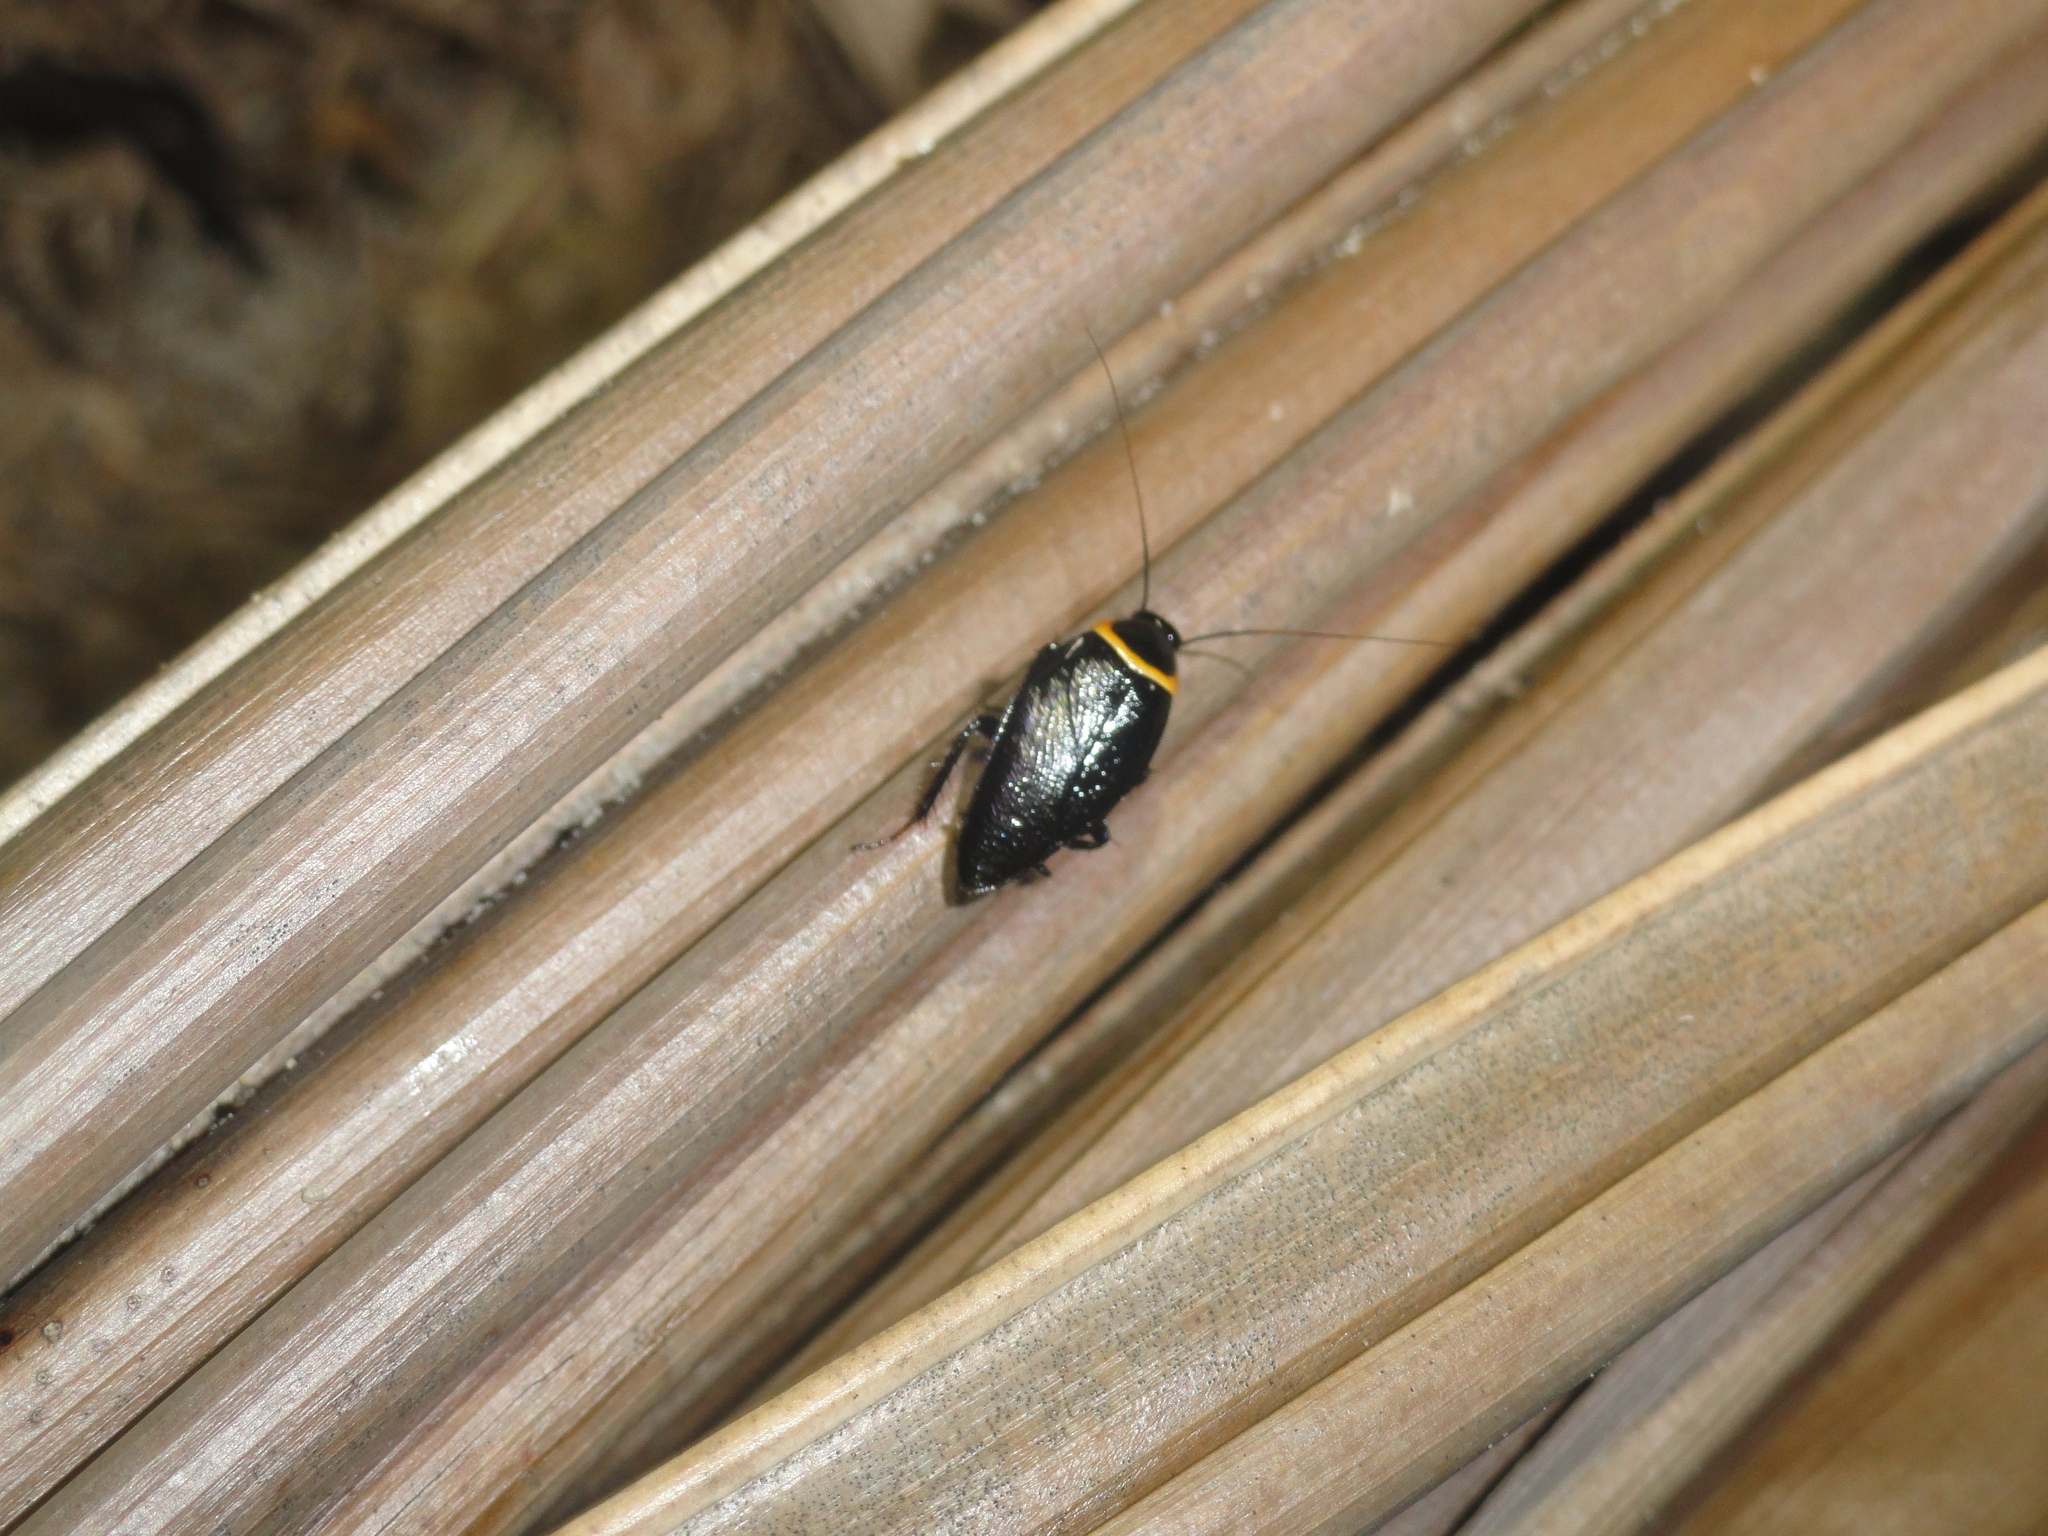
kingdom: Animalia
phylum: Arthropoda
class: Insecta
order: Blattodea
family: Ectobiidae
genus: Hemithyrsocera
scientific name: Hemithyrsocera palliata
